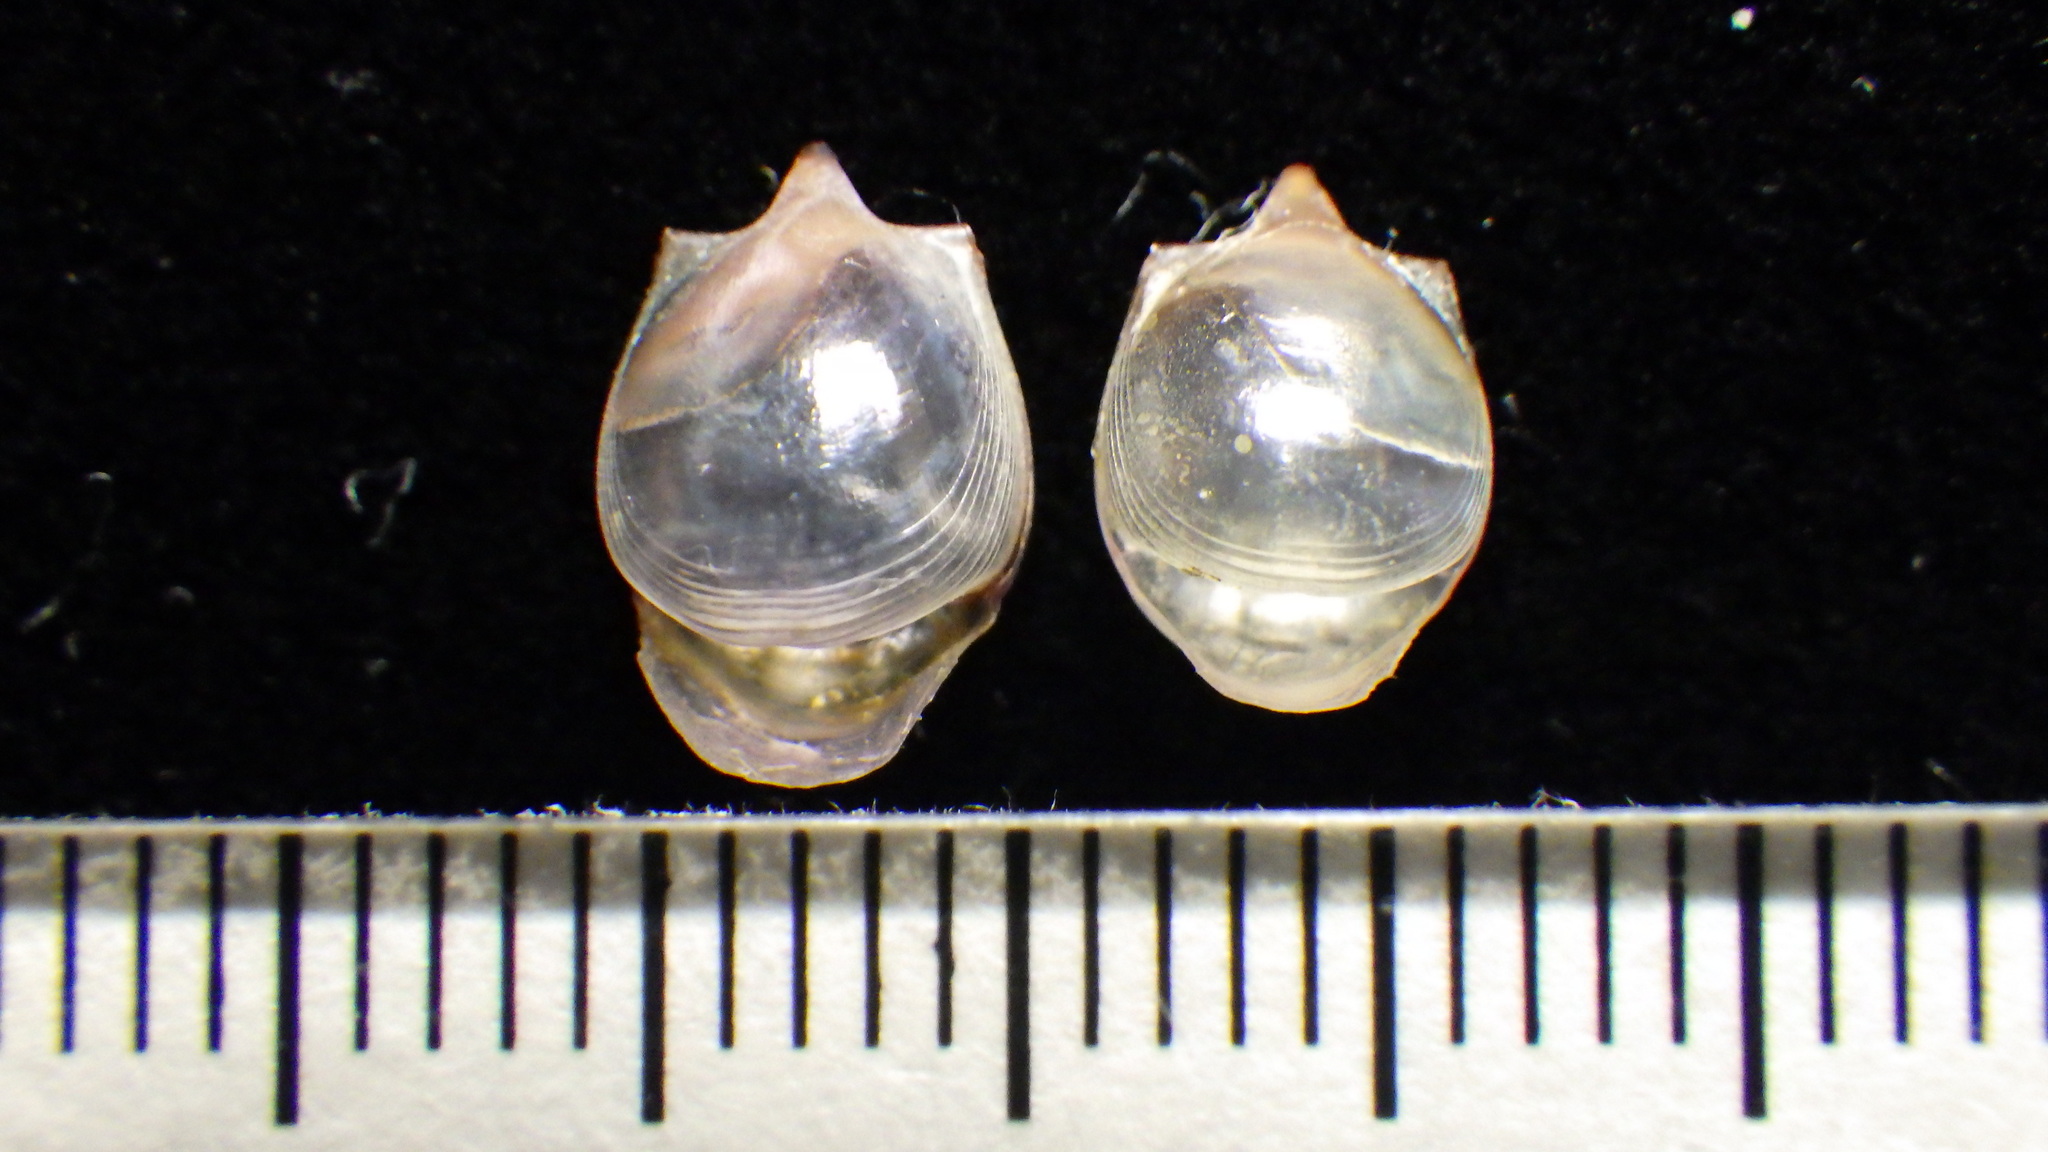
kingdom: Animalia
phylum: Mollusca
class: Gastropoda
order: Pteropoda
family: Cavoliniidae
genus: Cavolinia
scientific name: Cavolinia gibbosa
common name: Gibbose cavoline
